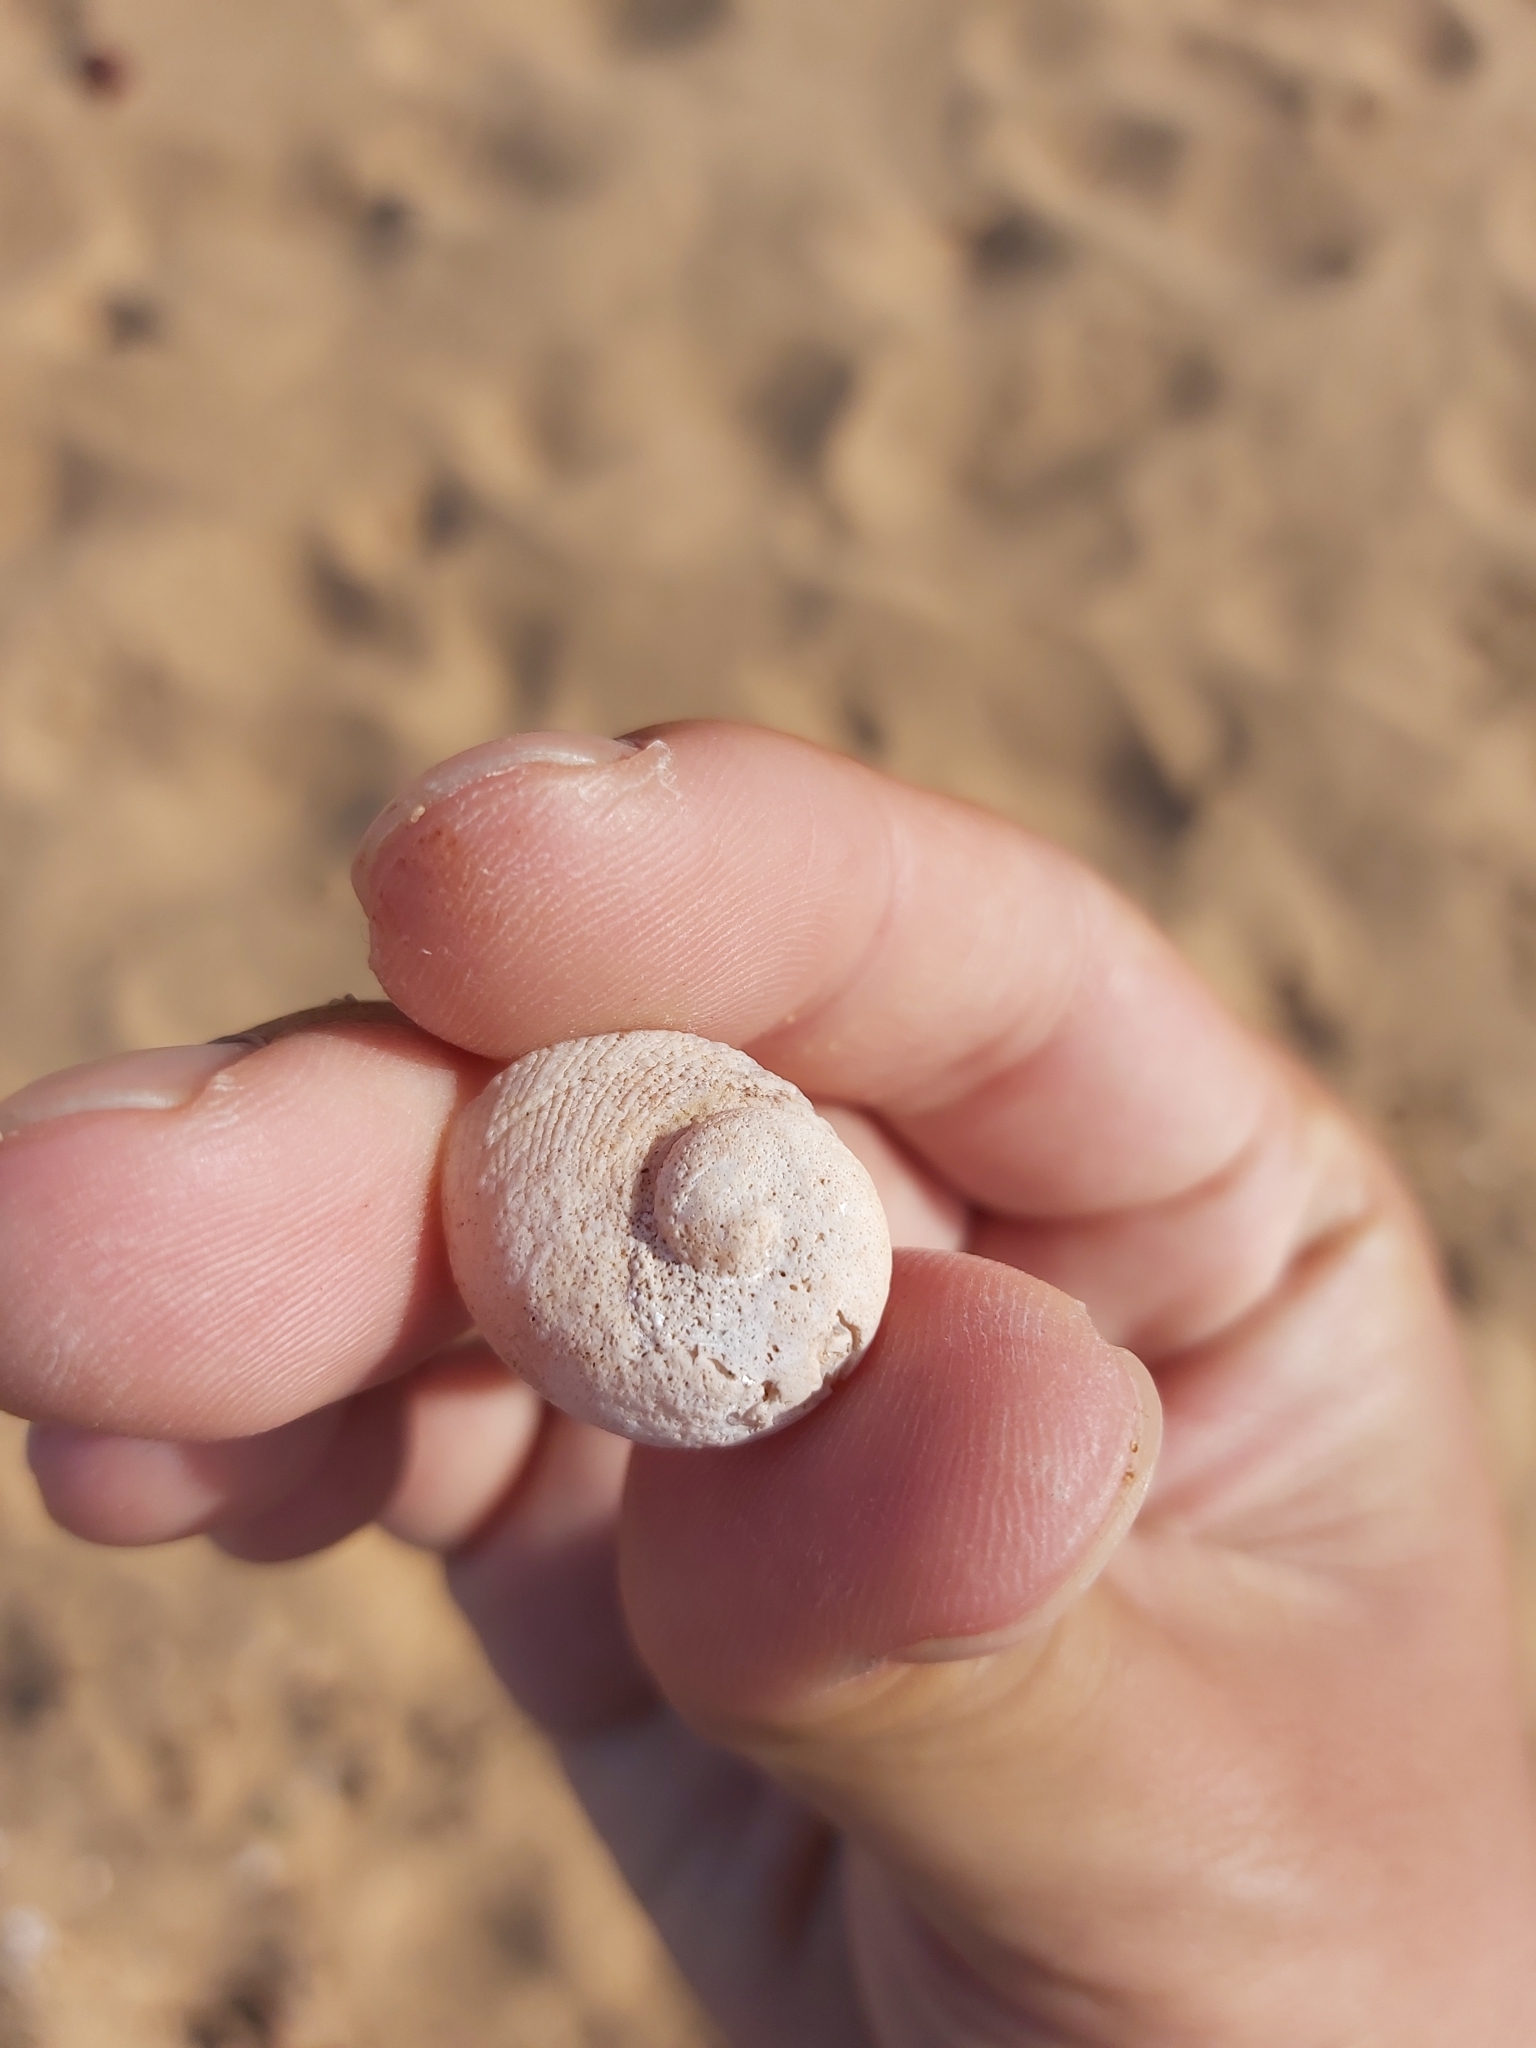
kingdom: Animalia
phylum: Mollusca
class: Gastropoda
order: Seguenziida
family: Chilodontaidae
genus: Granata
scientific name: Granata imbricata
